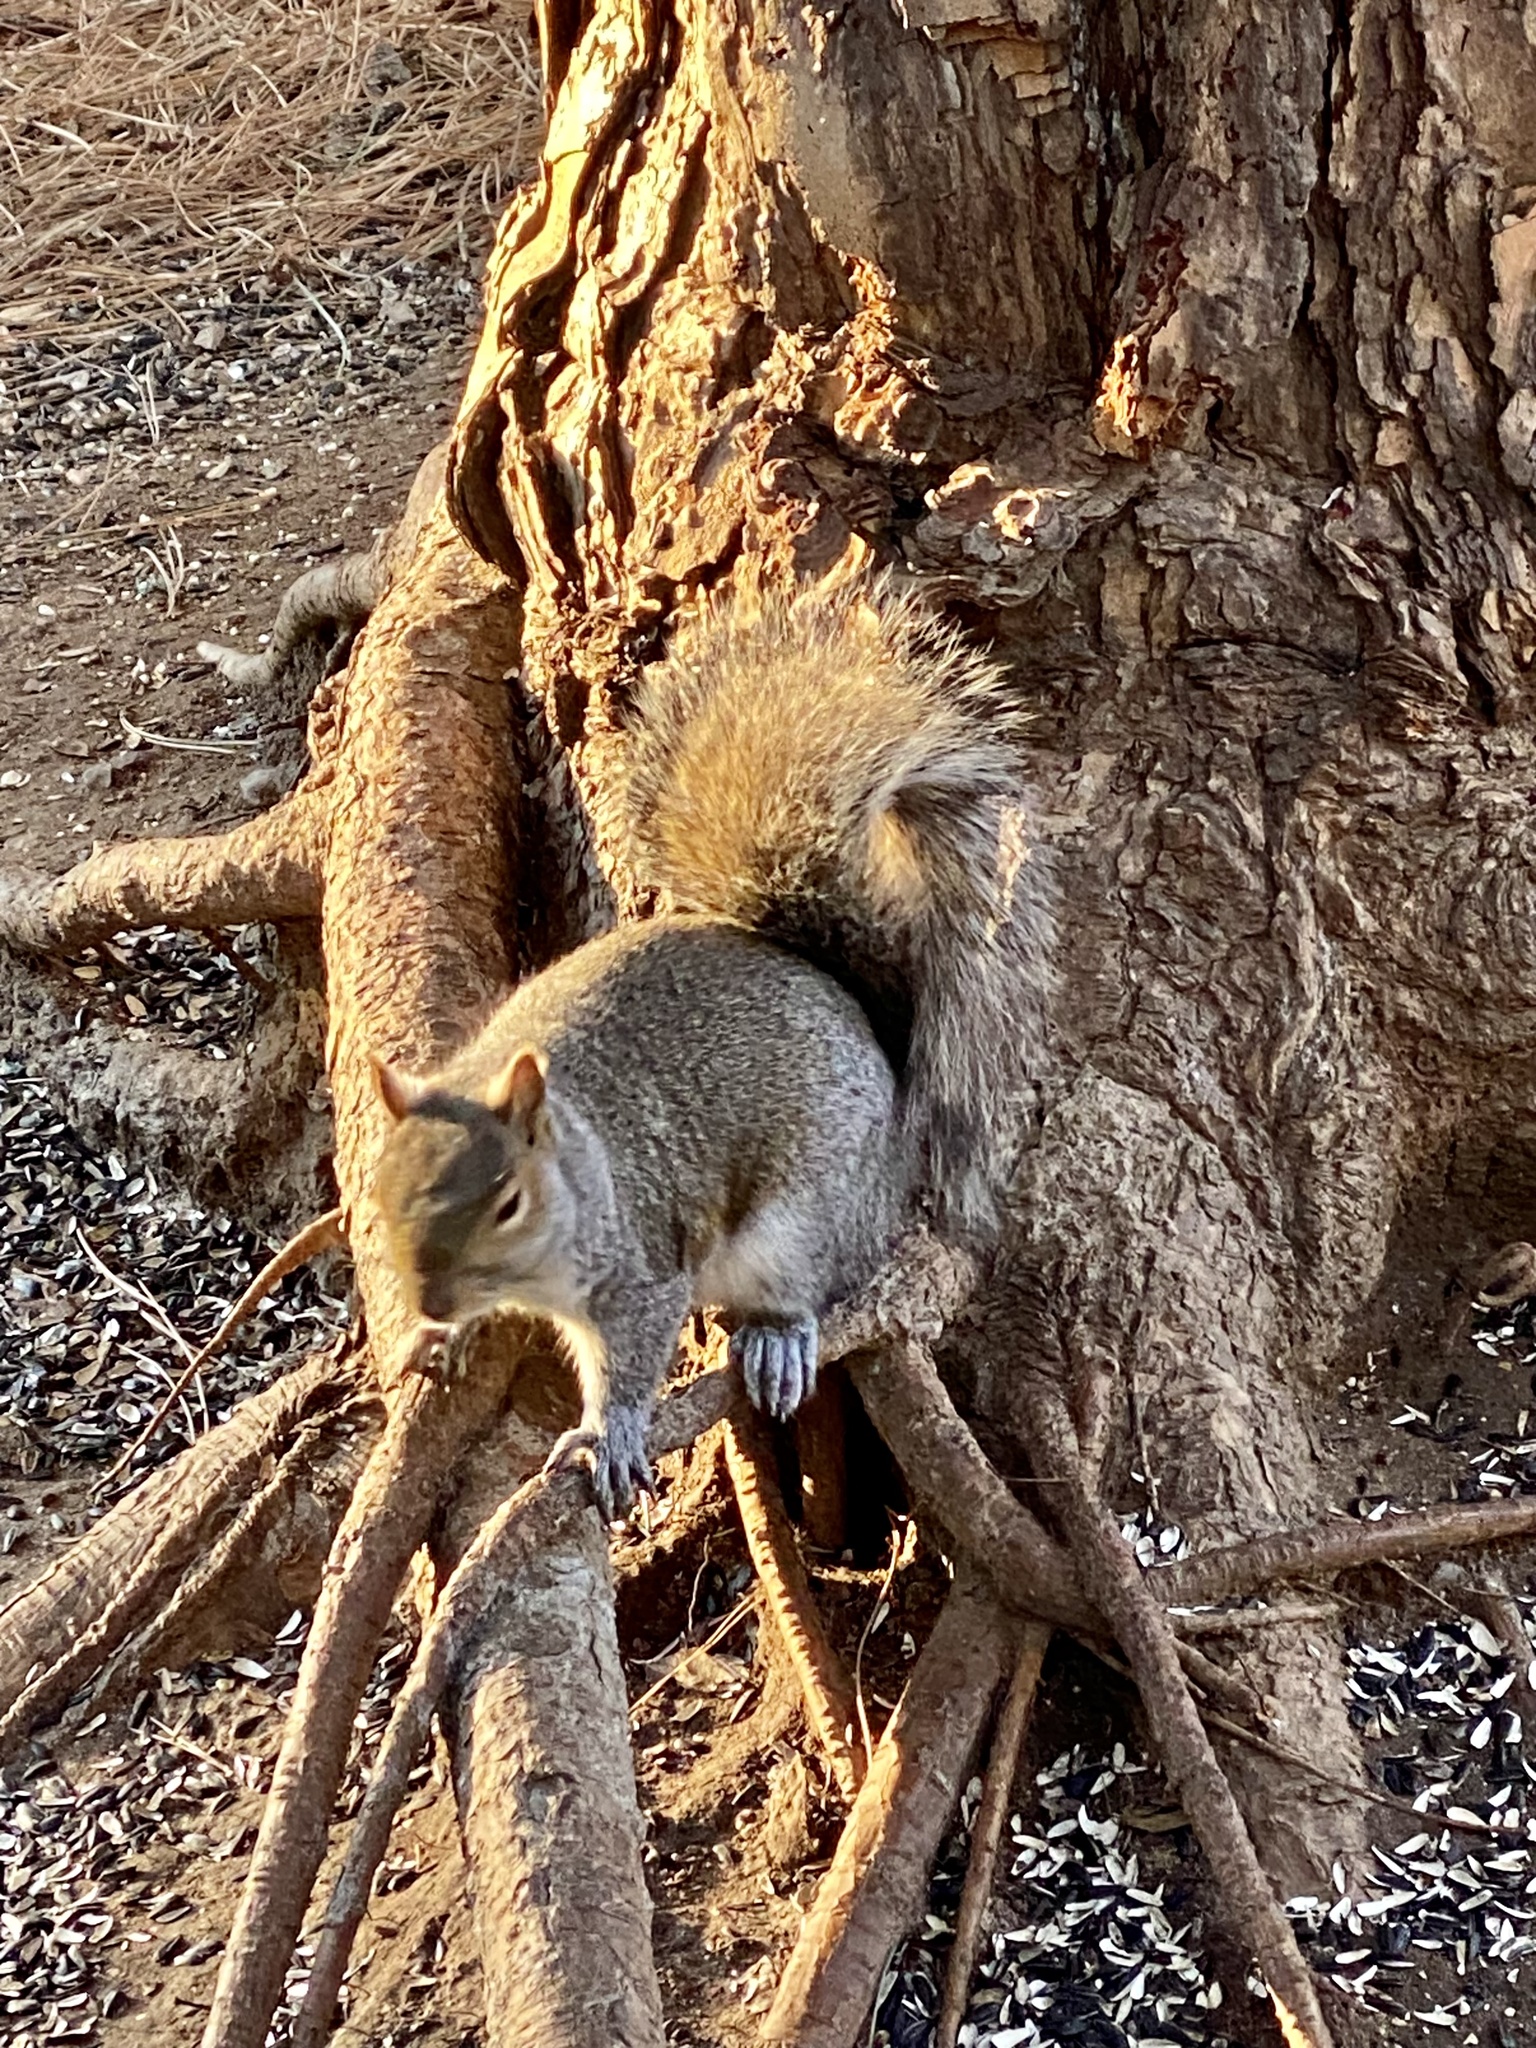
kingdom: Animalia
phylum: Chordata
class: Mammalia
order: Rodentia
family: Sciuridae
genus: Sciurus
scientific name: Sciurus carolinensis
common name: Eastern gray squirrel
